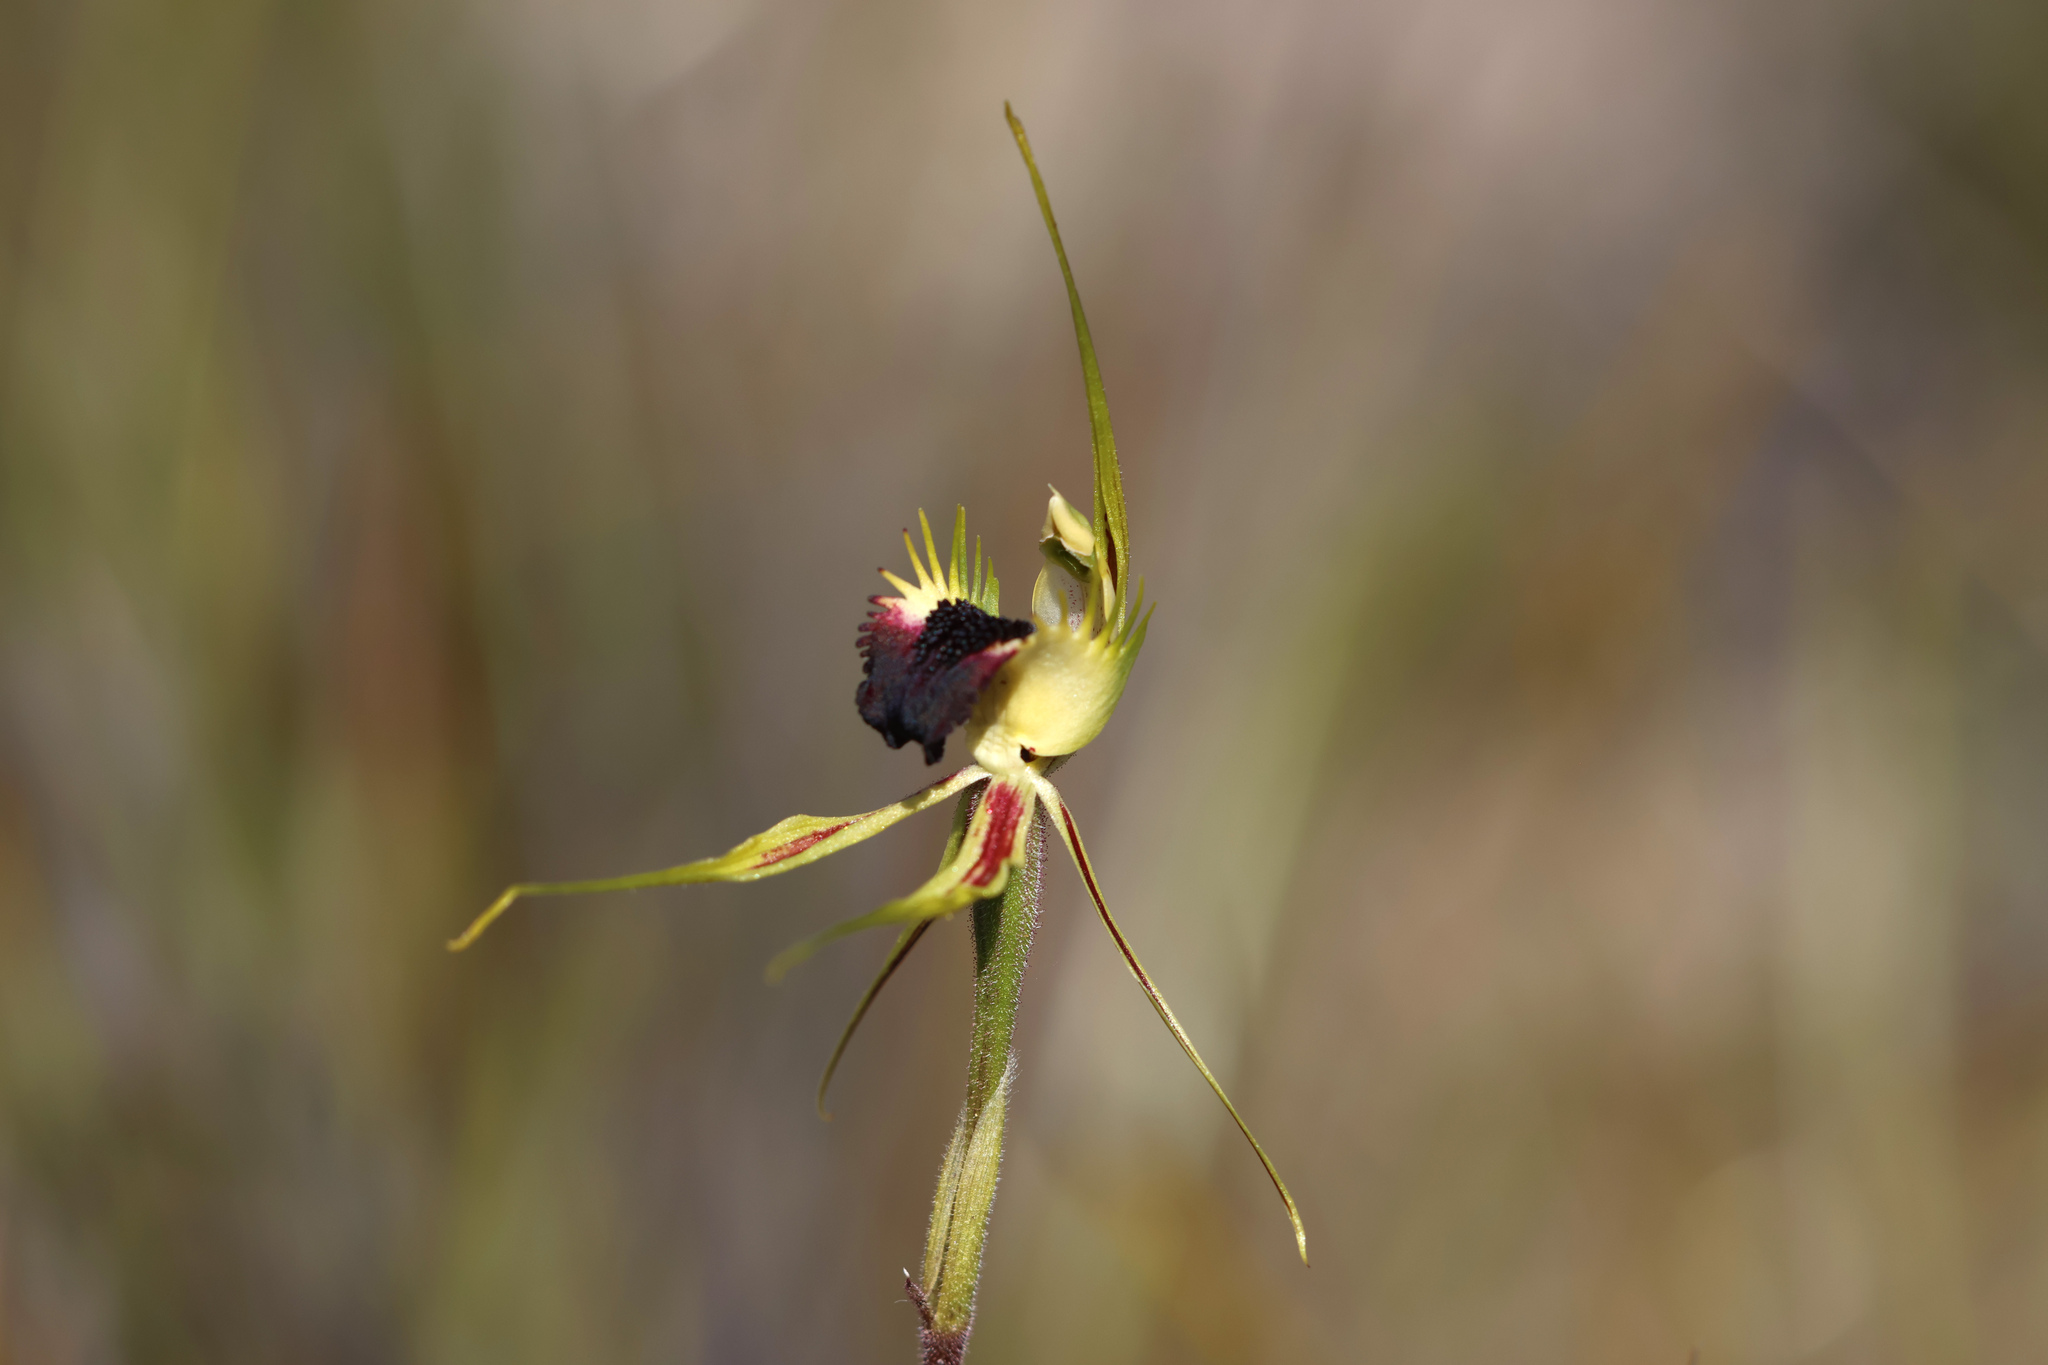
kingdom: Plantae
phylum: Tracheophyta
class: Liliopsida
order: Asparagales
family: Orchidaceae
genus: Caladenia
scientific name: Caladenia stricta
